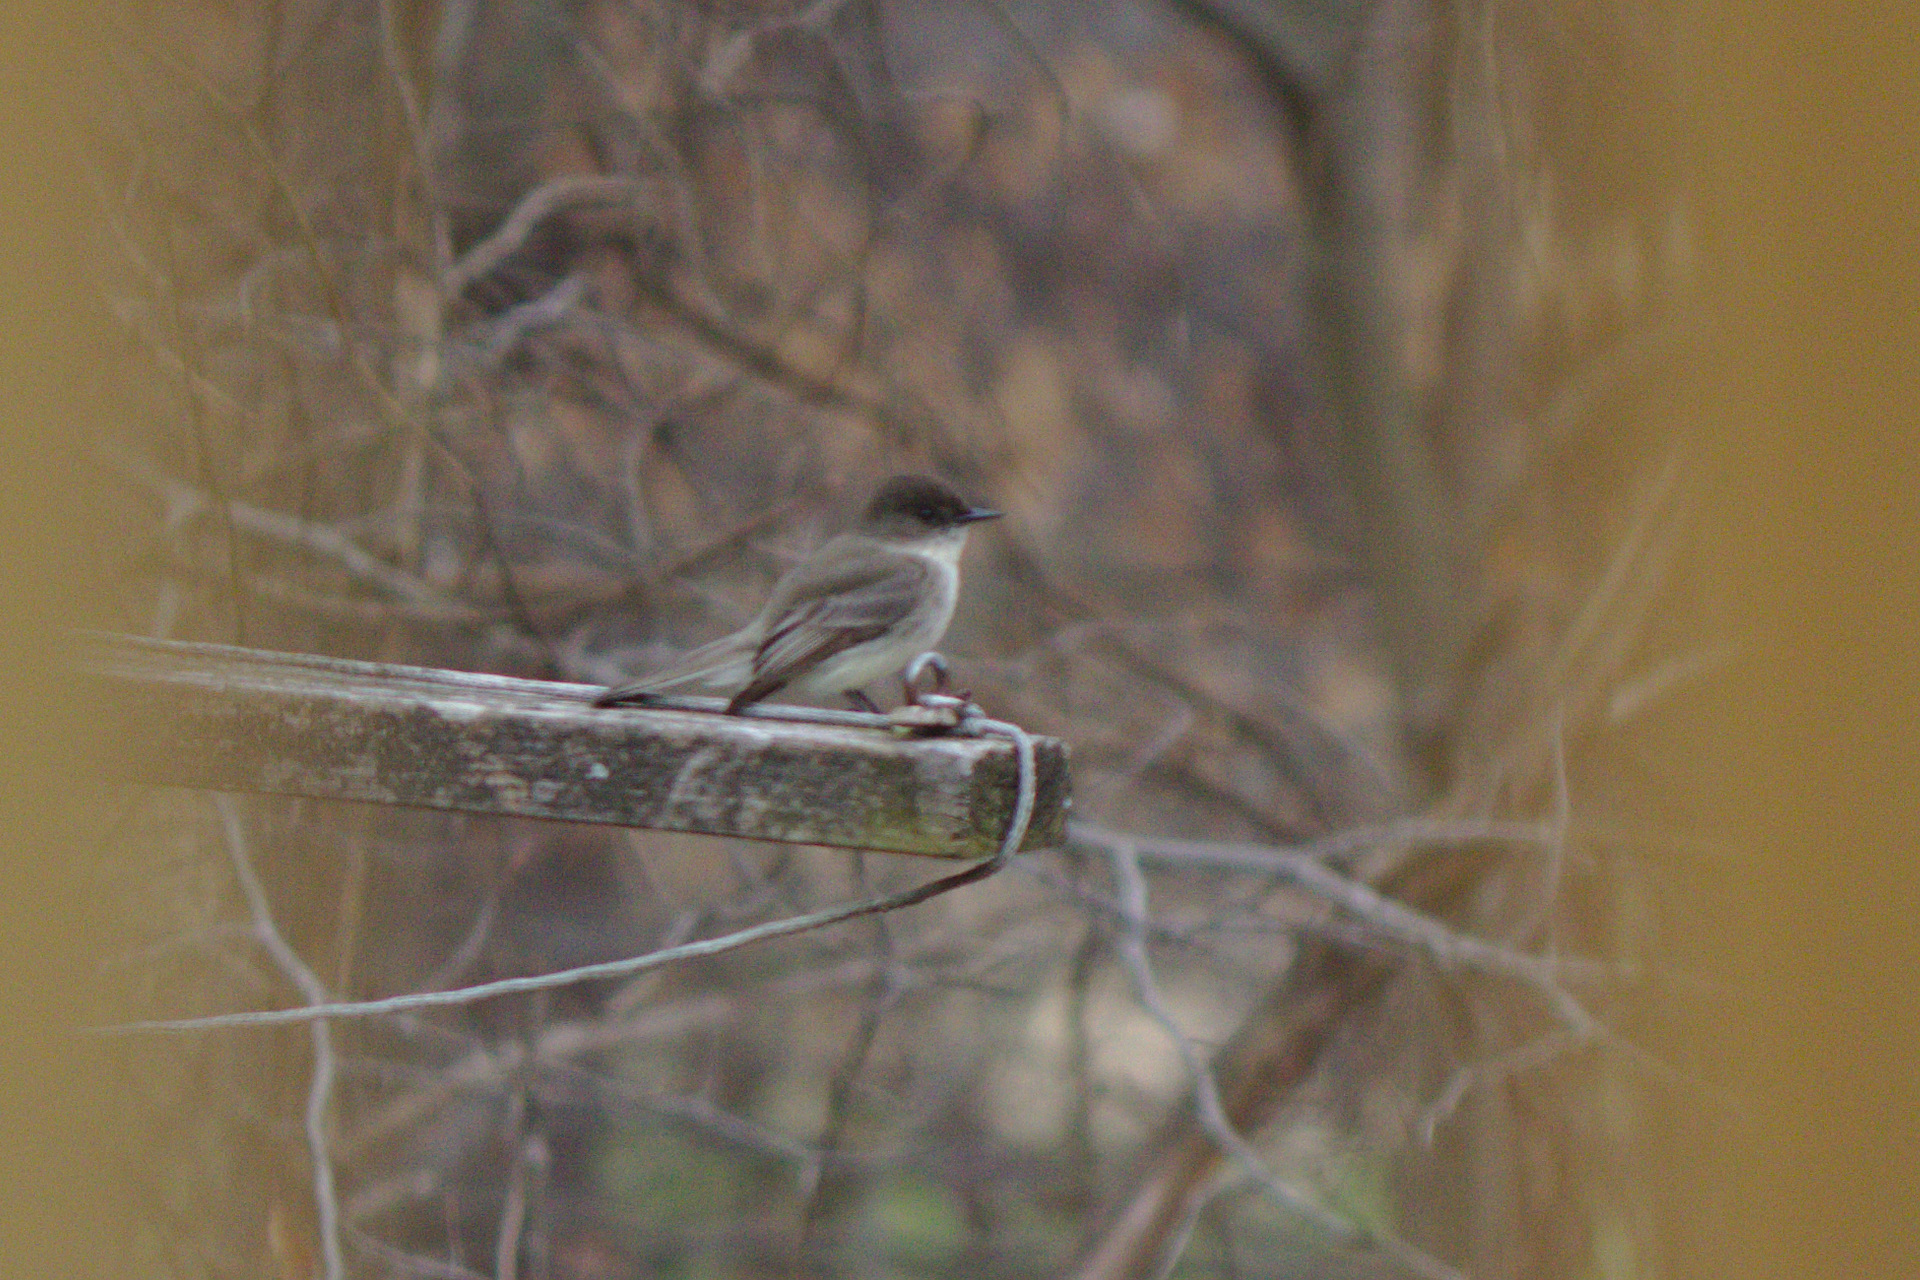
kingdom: Animalia
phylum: Chordata
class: Aves
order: Passeriformes
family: Tyrannidae
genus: Sayornis
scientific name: Sayornis phoebe
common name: Eastern phoebe
